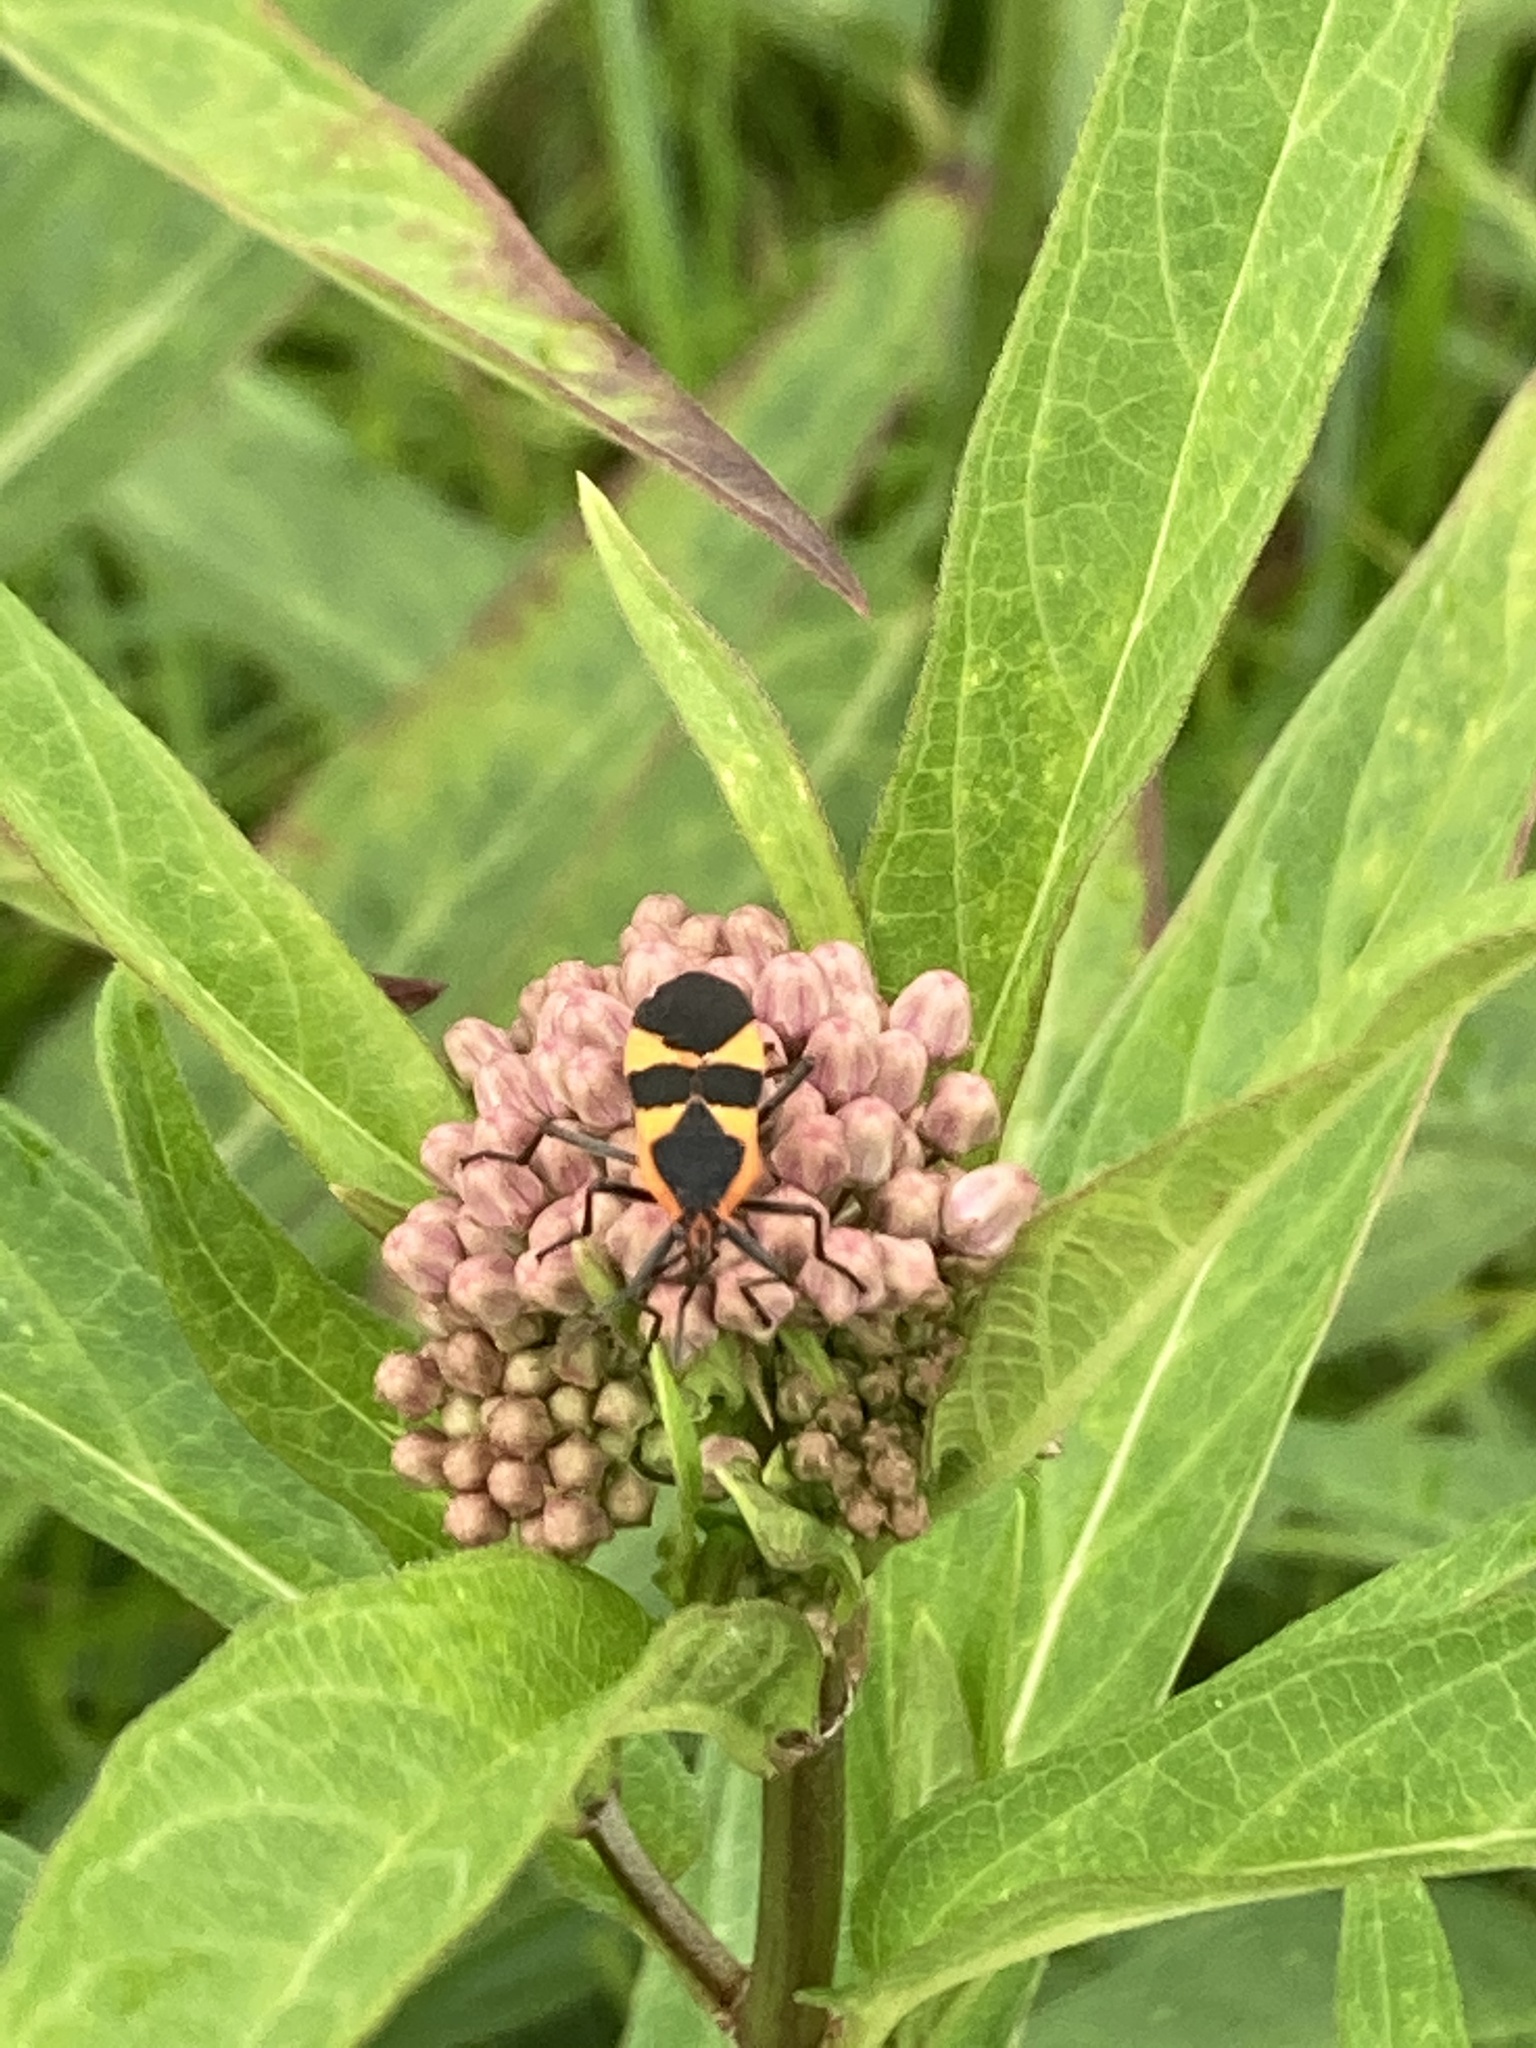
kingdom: Animalia
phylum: Arthropoda
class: Insecta
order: Hemiptera
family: Lygaeidae
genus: Oncopeltus
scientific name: Oncopeltus fasciatus
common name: Large milkweed bug
